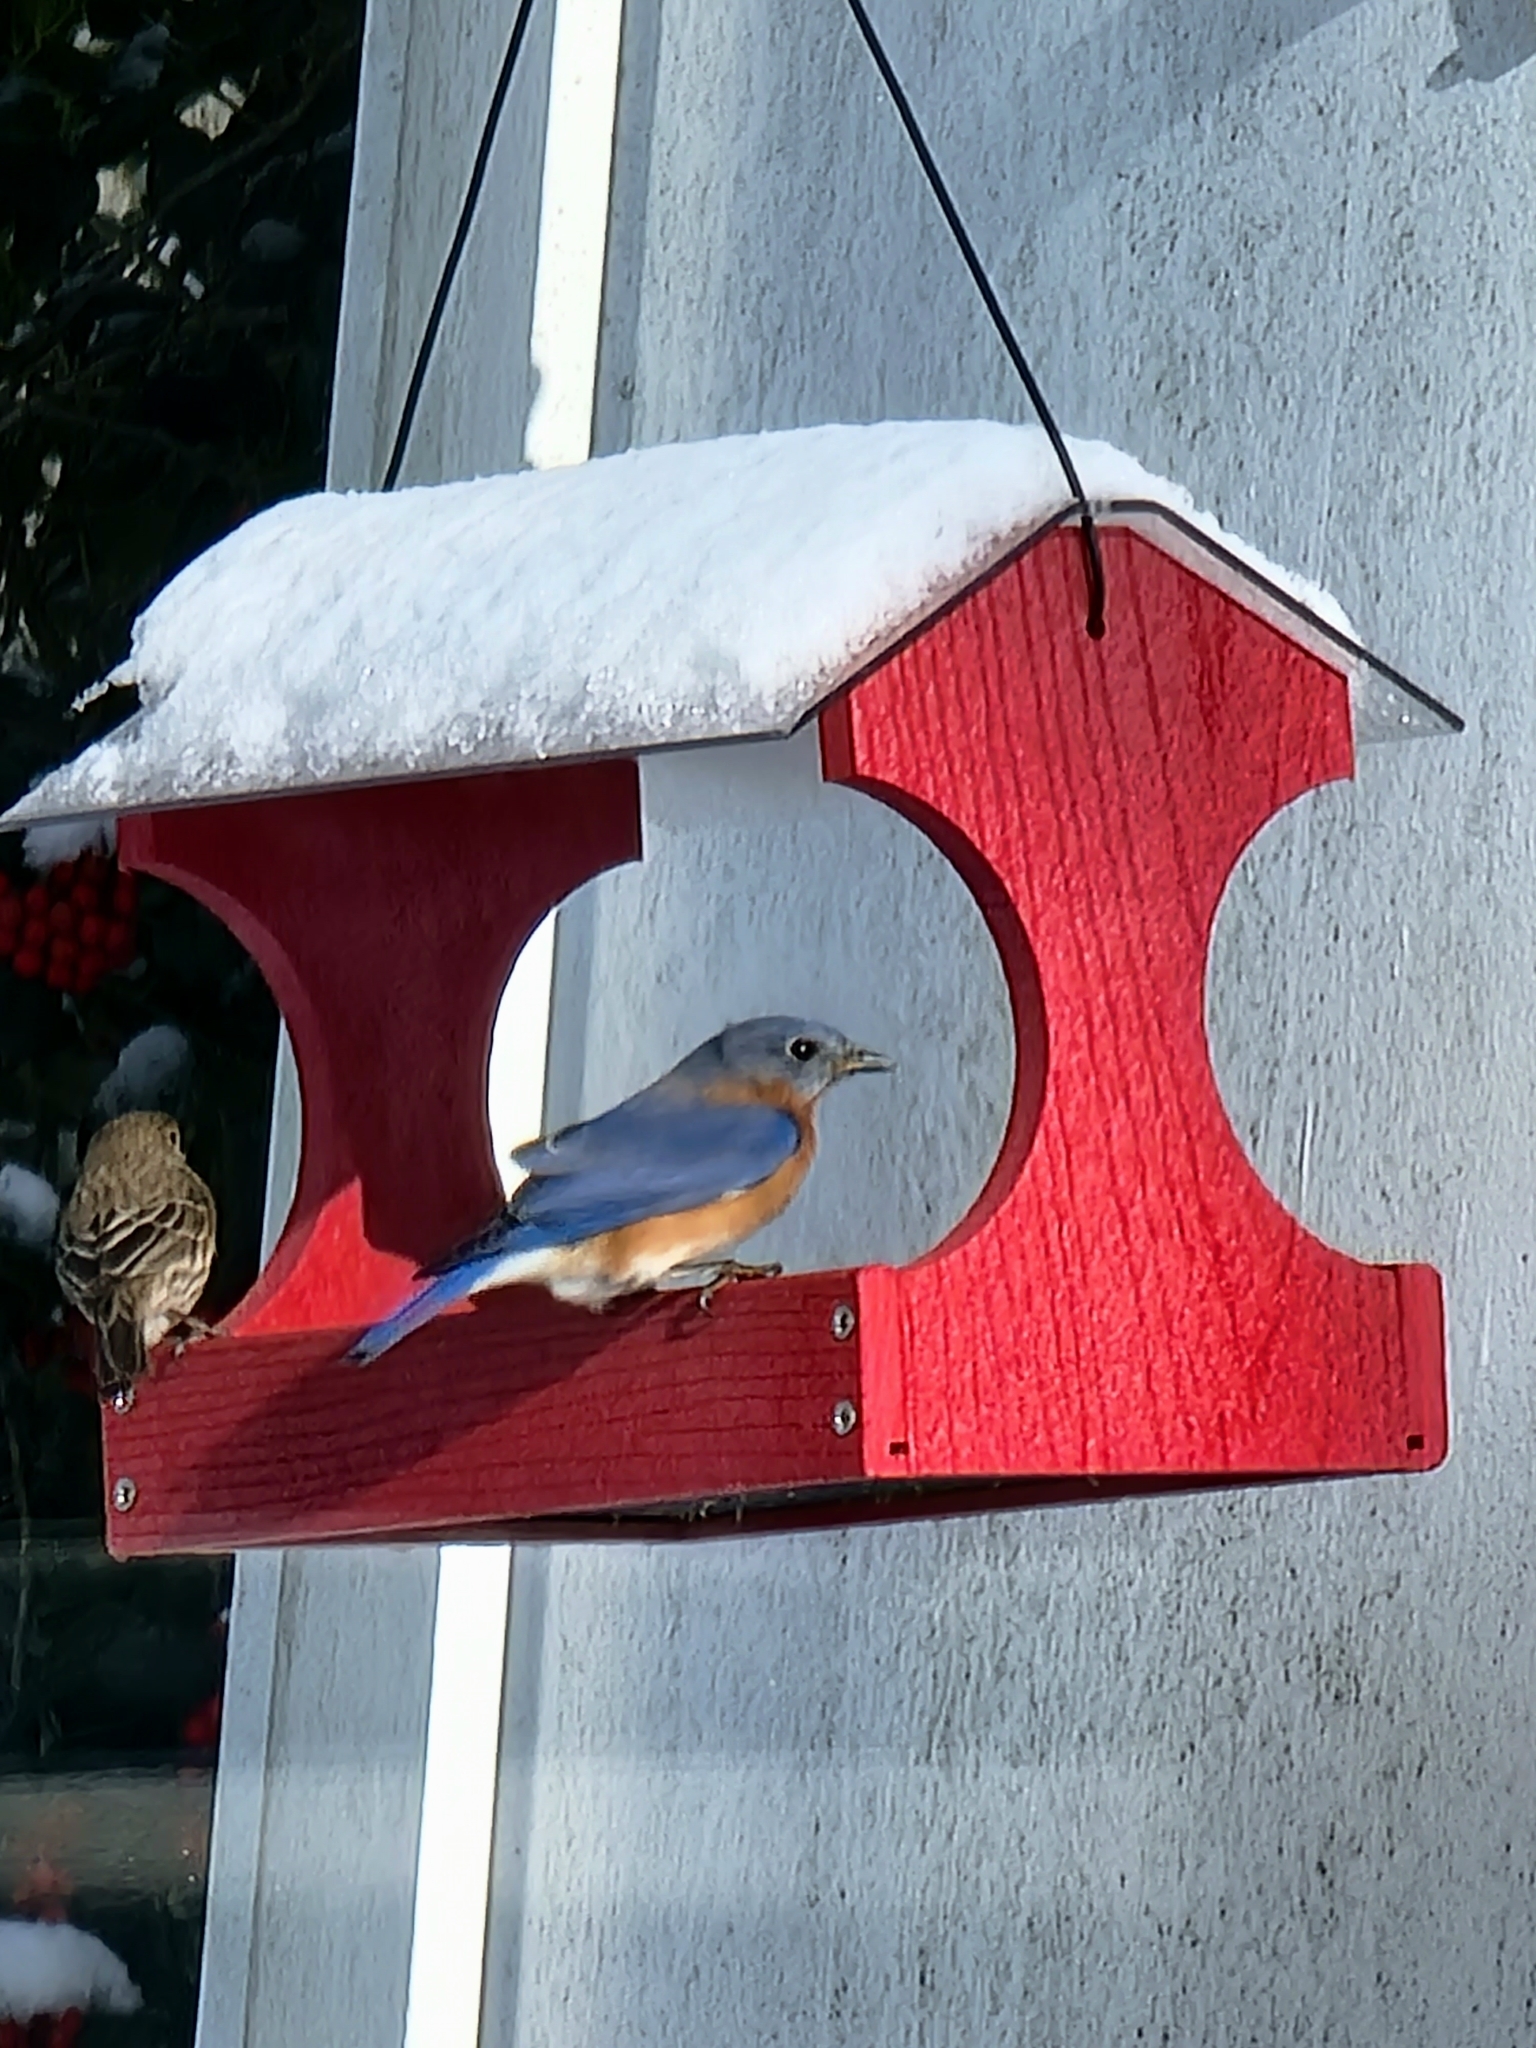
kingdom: Animalia
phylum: Chordata
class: Aves
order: Passeriformes
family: Turdidae
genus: Sialia
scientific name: Sialia sialis
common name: Eastern bluebird
